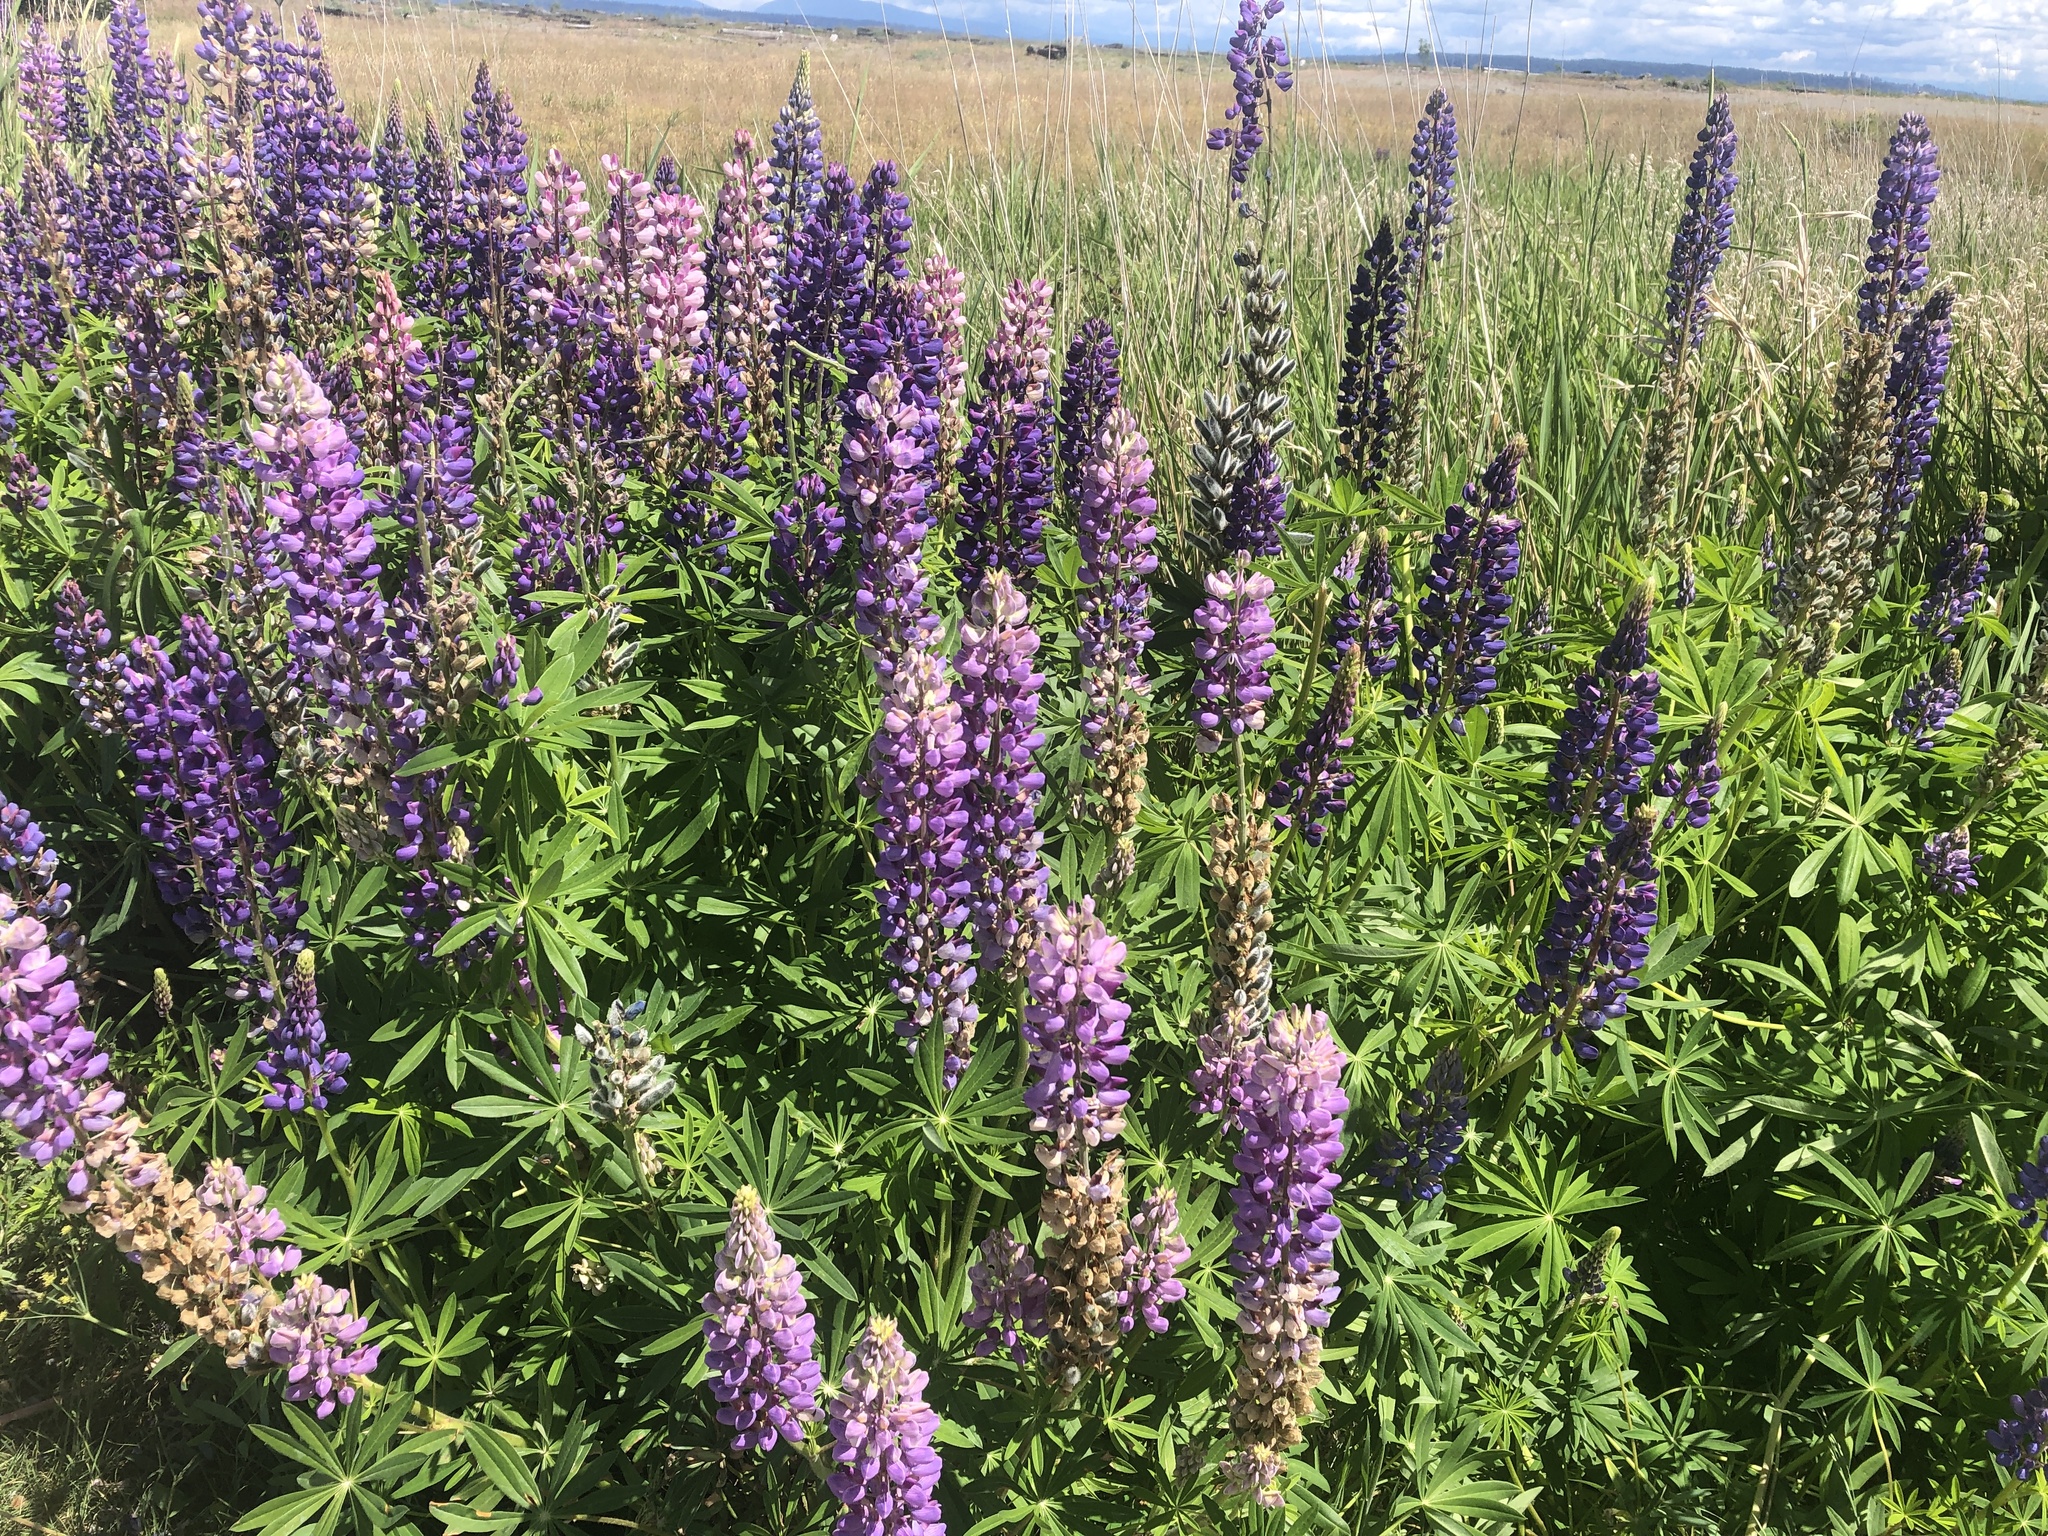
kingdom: Plantae
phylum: Tracheophyta
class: Magnoliopsida
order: Fabales
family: Fabaceae
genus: Lupinus
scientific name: Lupinus polyphyllus
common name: Garden lupin
